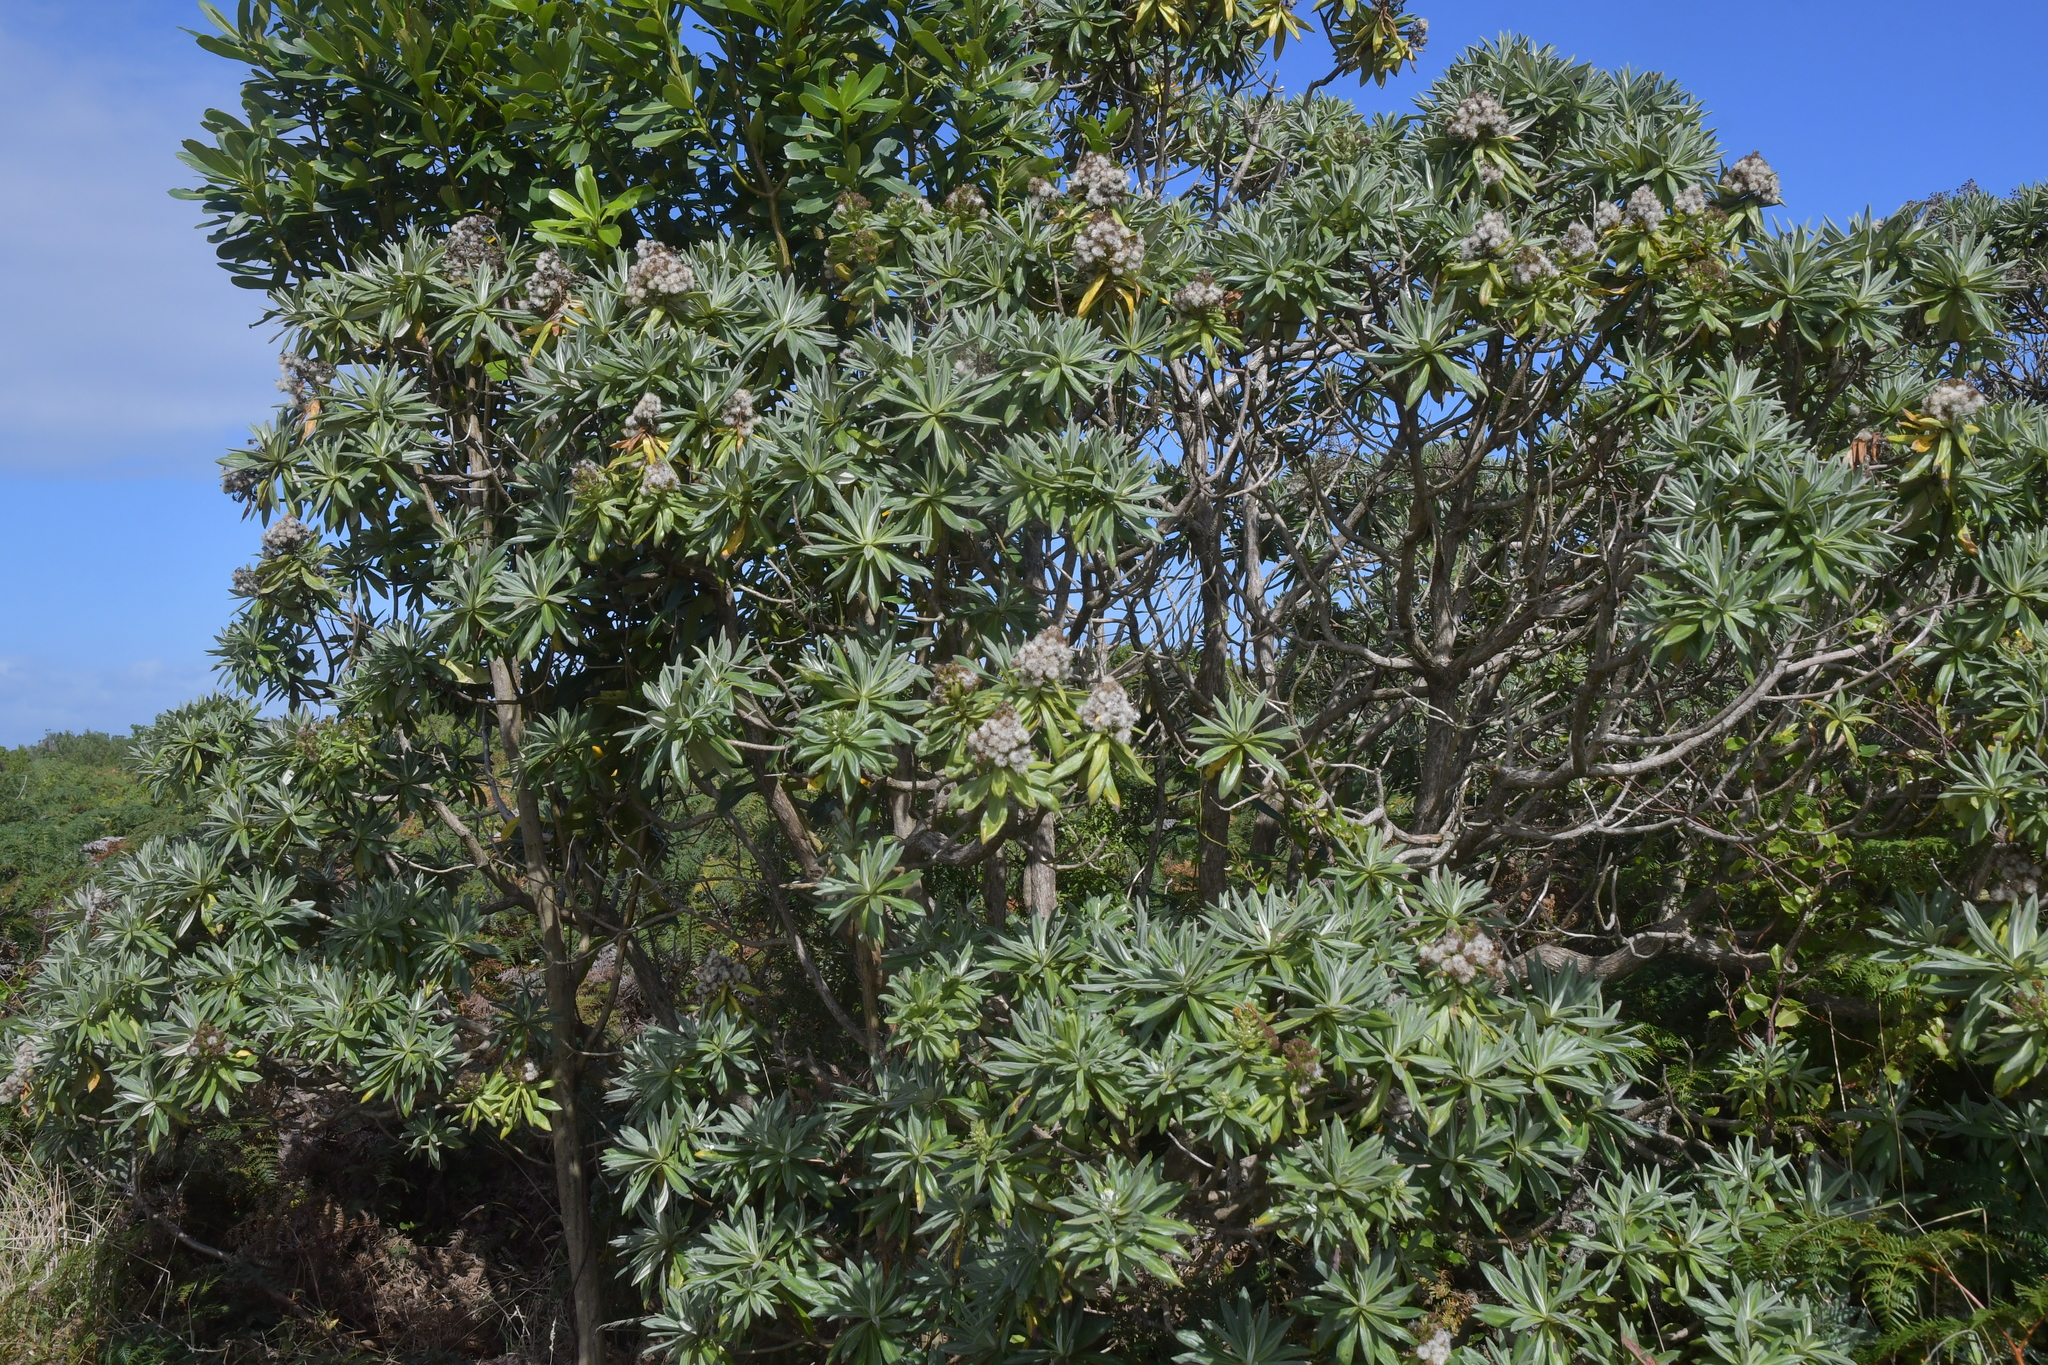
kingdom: Plantae
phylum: Tracheophyta
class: Magnoliopsida
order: Asterales
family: Asteraceae
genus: Brachyglottis
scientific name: Brachyglottis huntii
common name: Chatham island christmas tree
